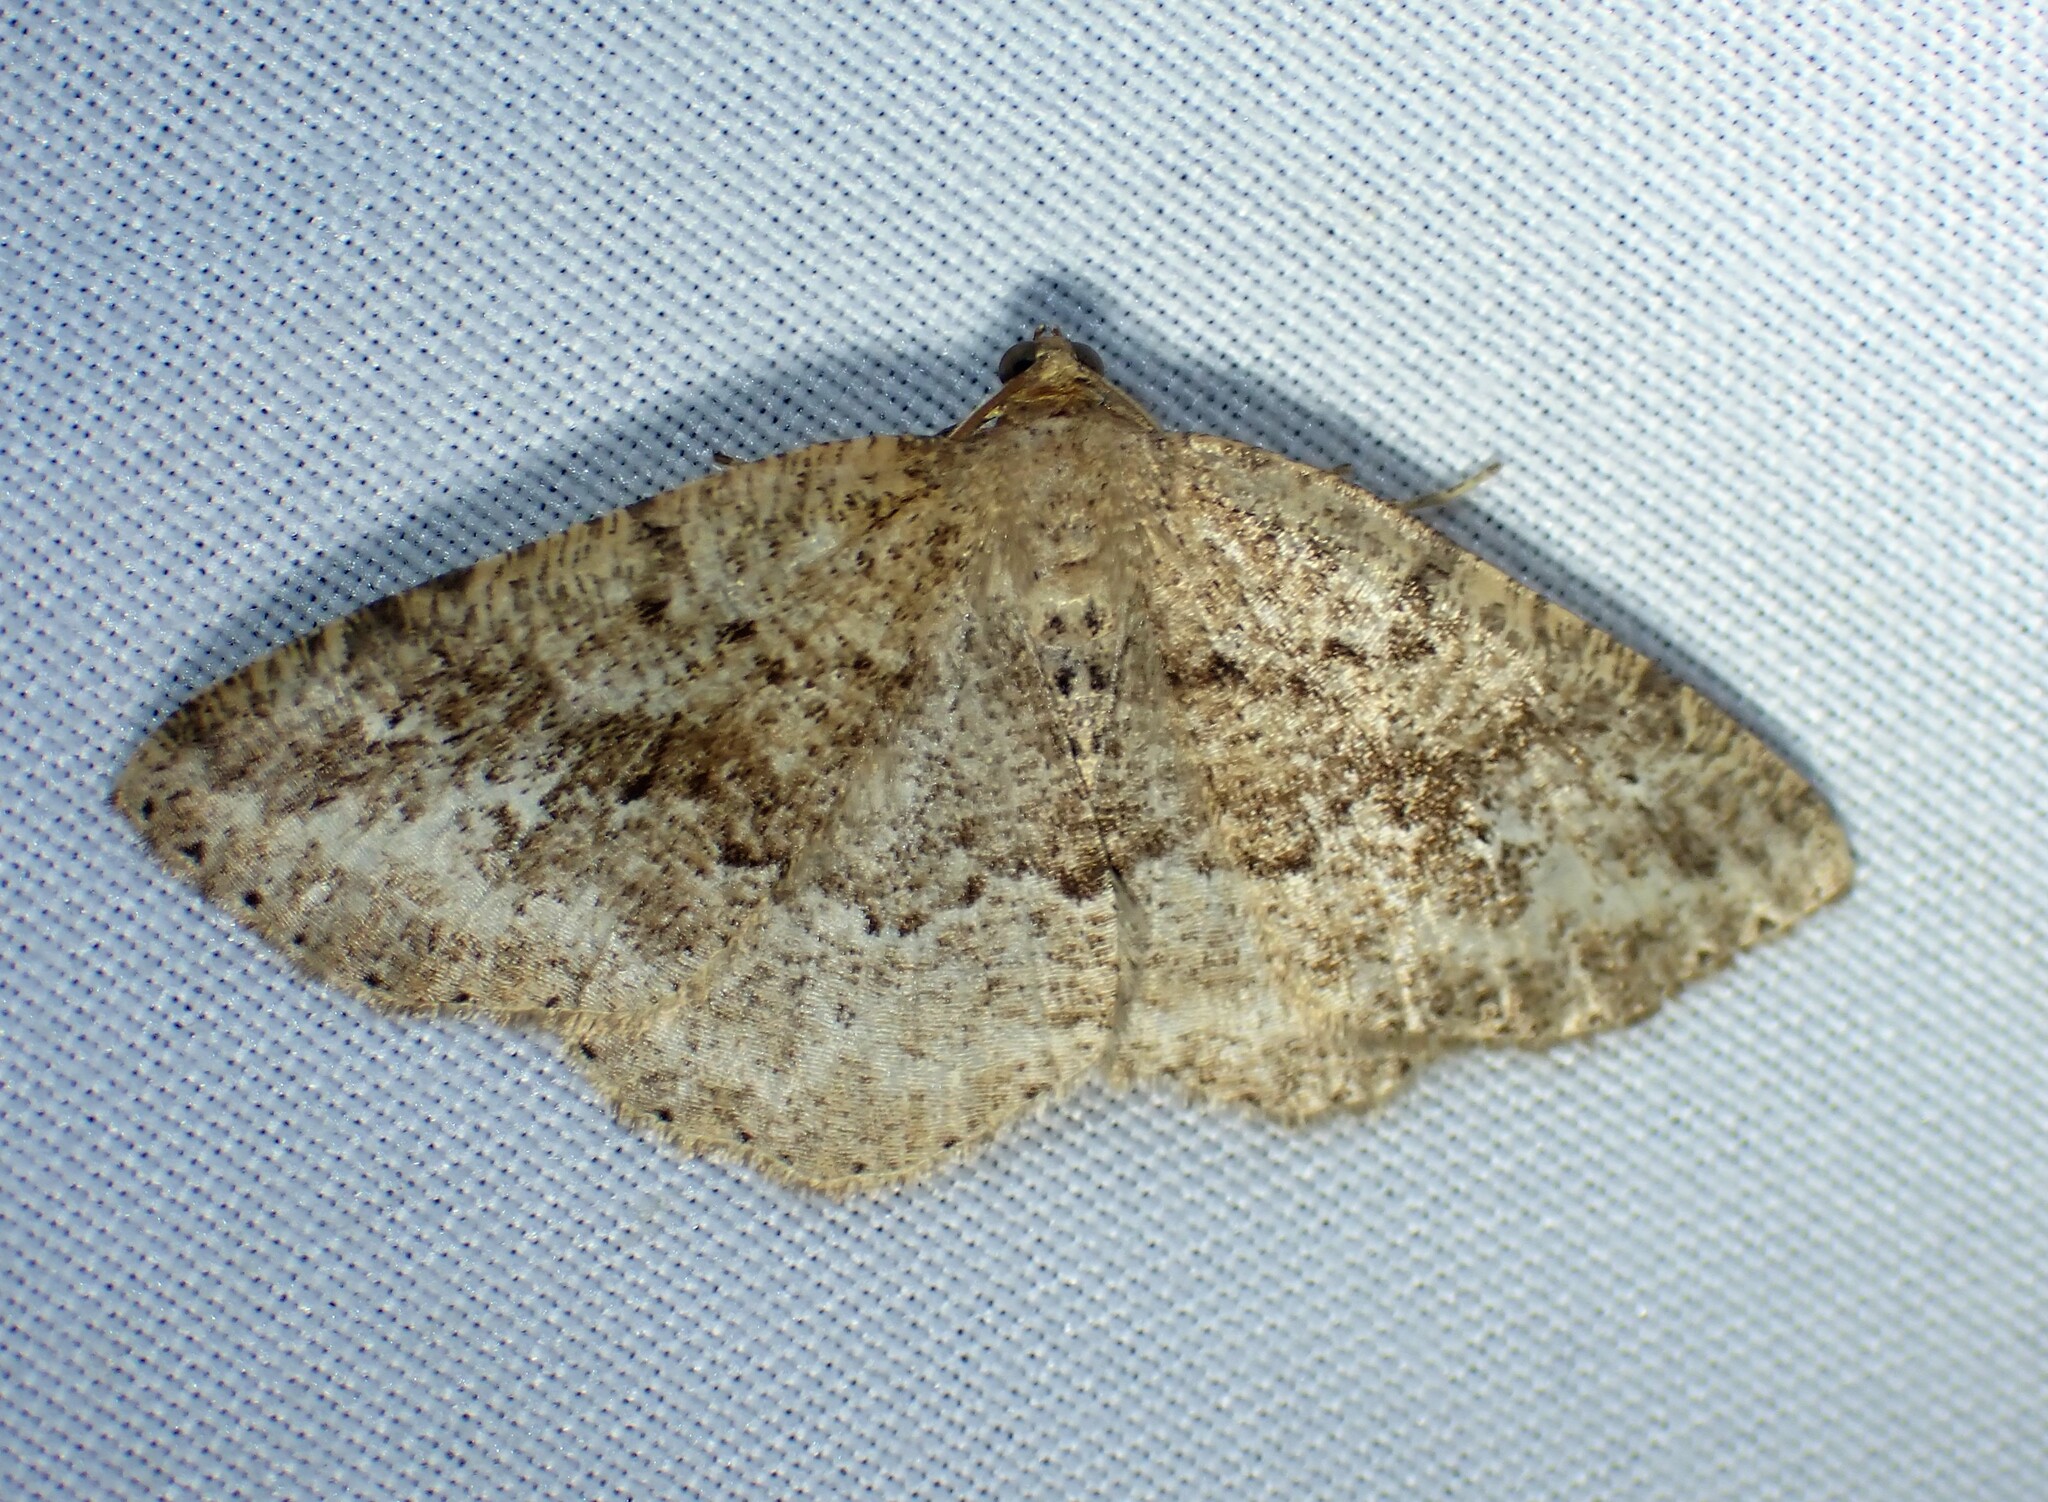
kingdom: Animalia
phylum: Arthropoda
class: Insecta
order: Lepidoptera
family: Geometridae
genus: Homochlodes
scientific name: Homochlodes fritillaria
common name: Pale homochlodes
